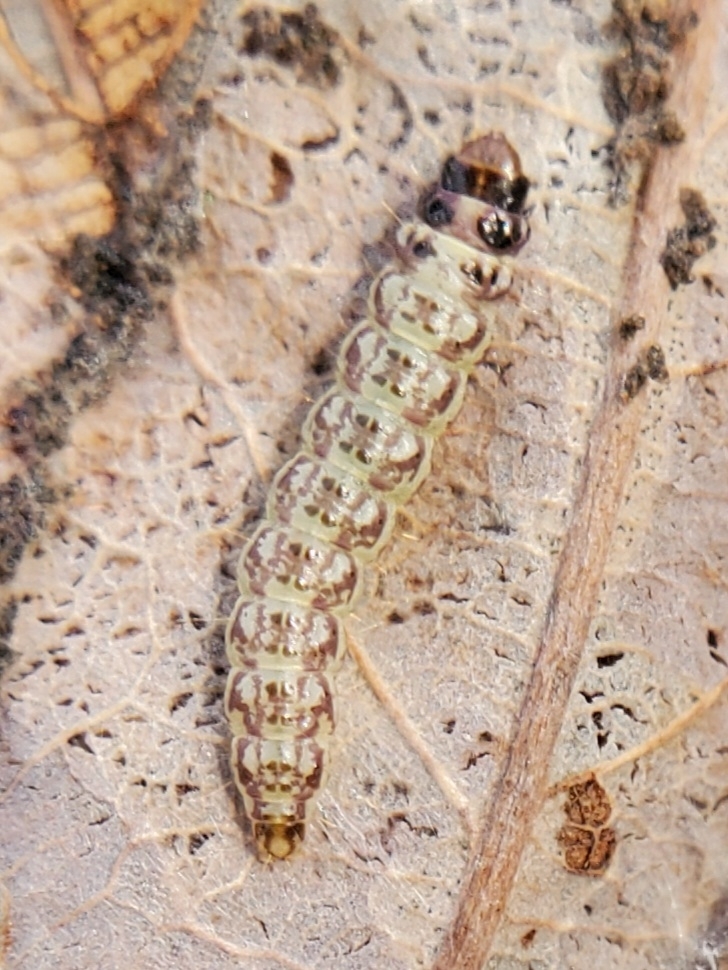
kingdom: Animalia
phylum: Arthropoda
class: Insecta
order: Lepidoptera
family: Depressariidae
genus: Antaeotricha
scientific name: Antaeotricha humilis
